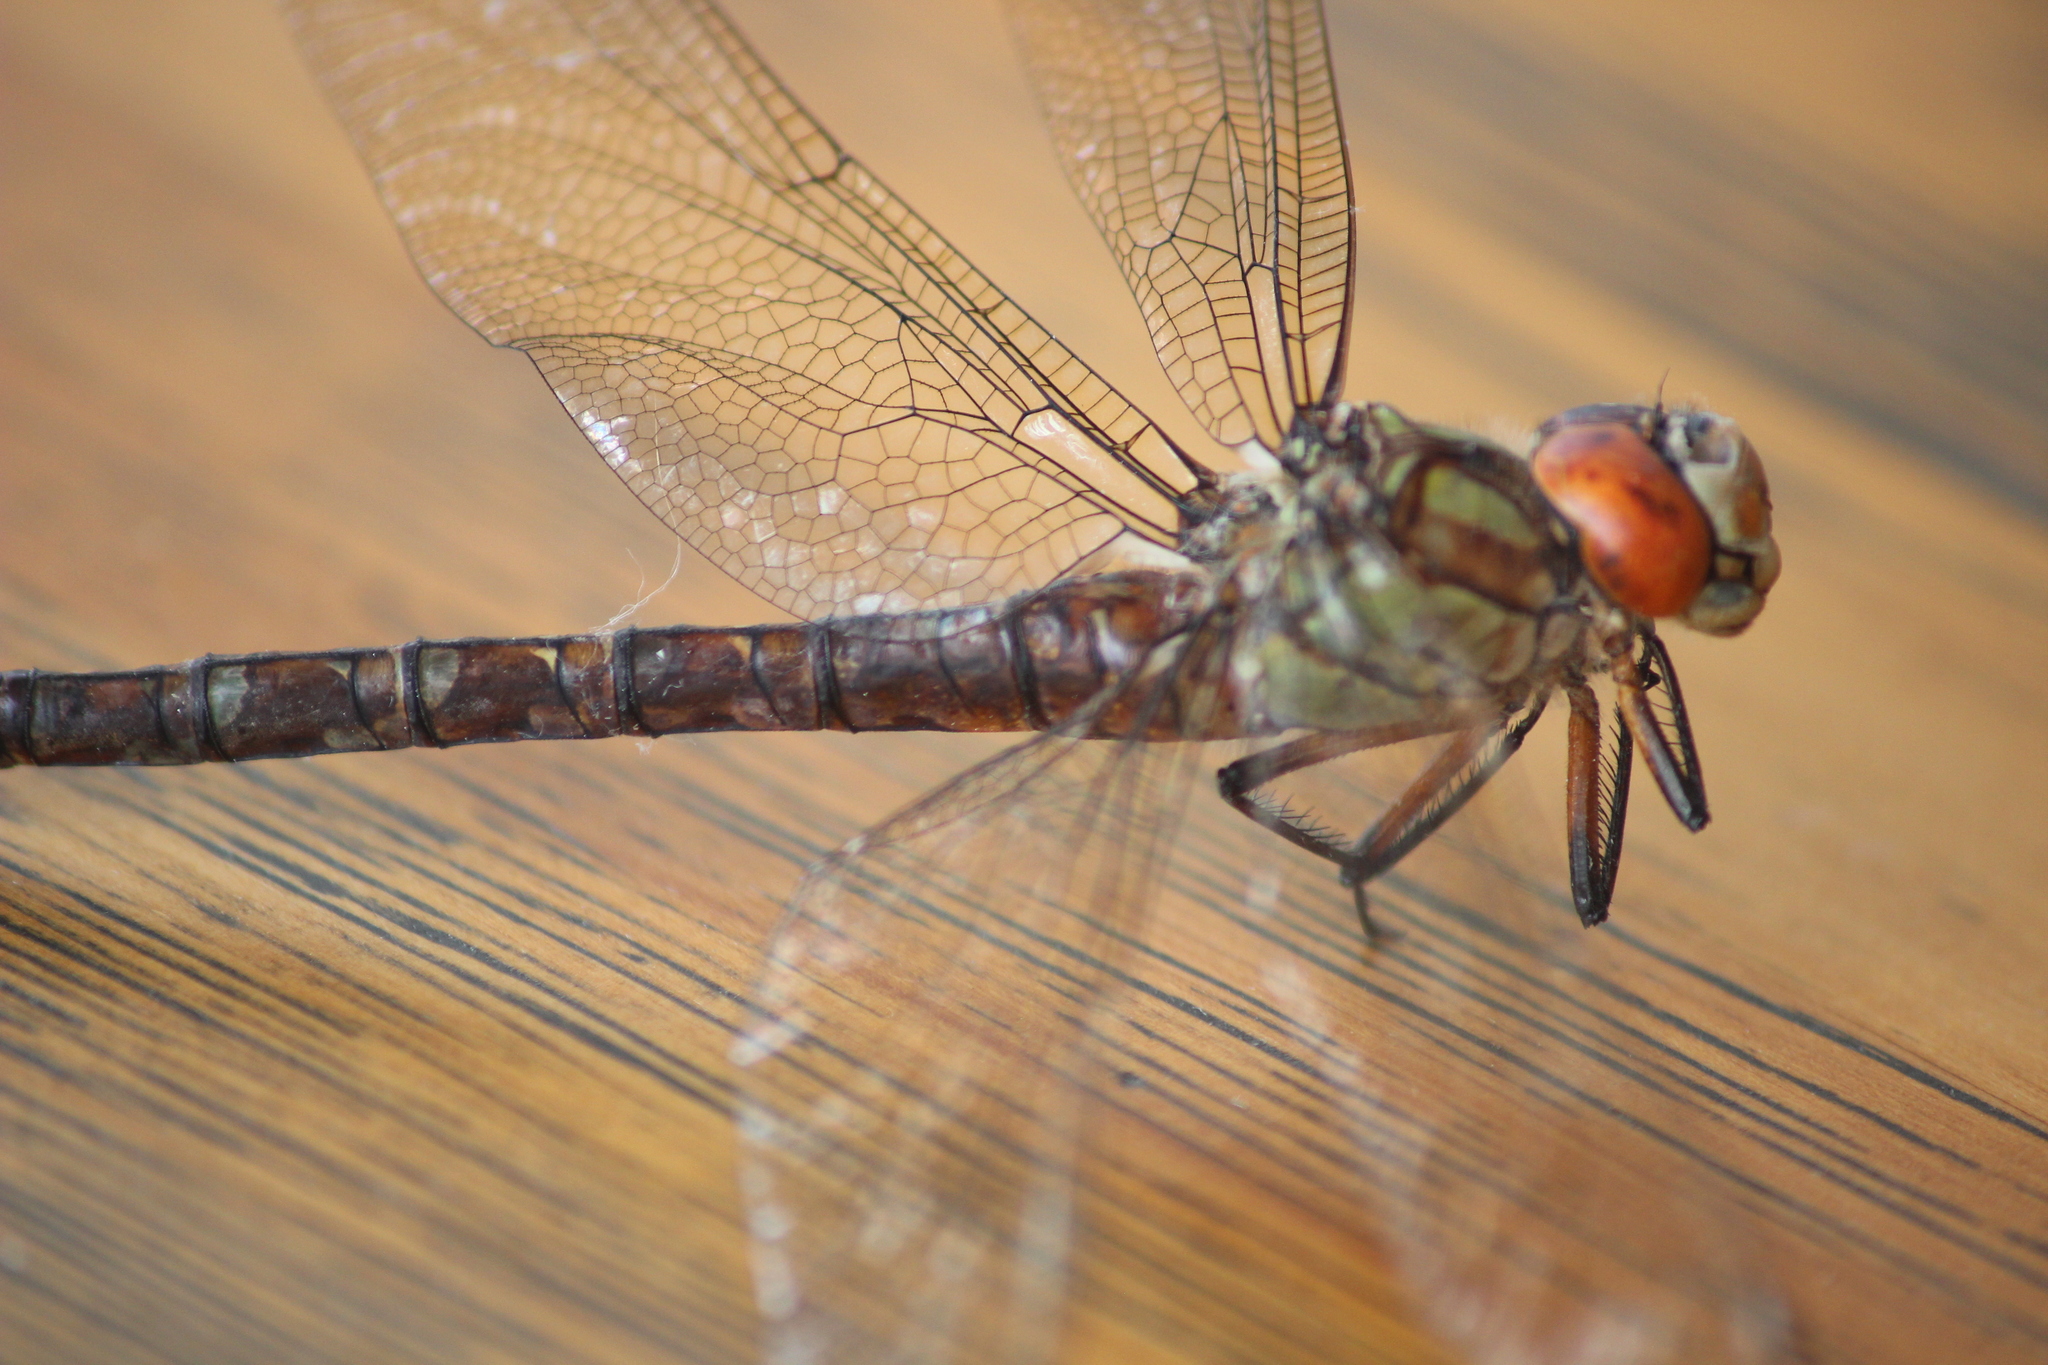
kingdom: Animalia
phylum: Arthropoda
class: Insecta
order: Odonata
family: Aeshnidae
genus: Aeshna
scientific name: Aeshna cyanea
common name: Southern hawker
